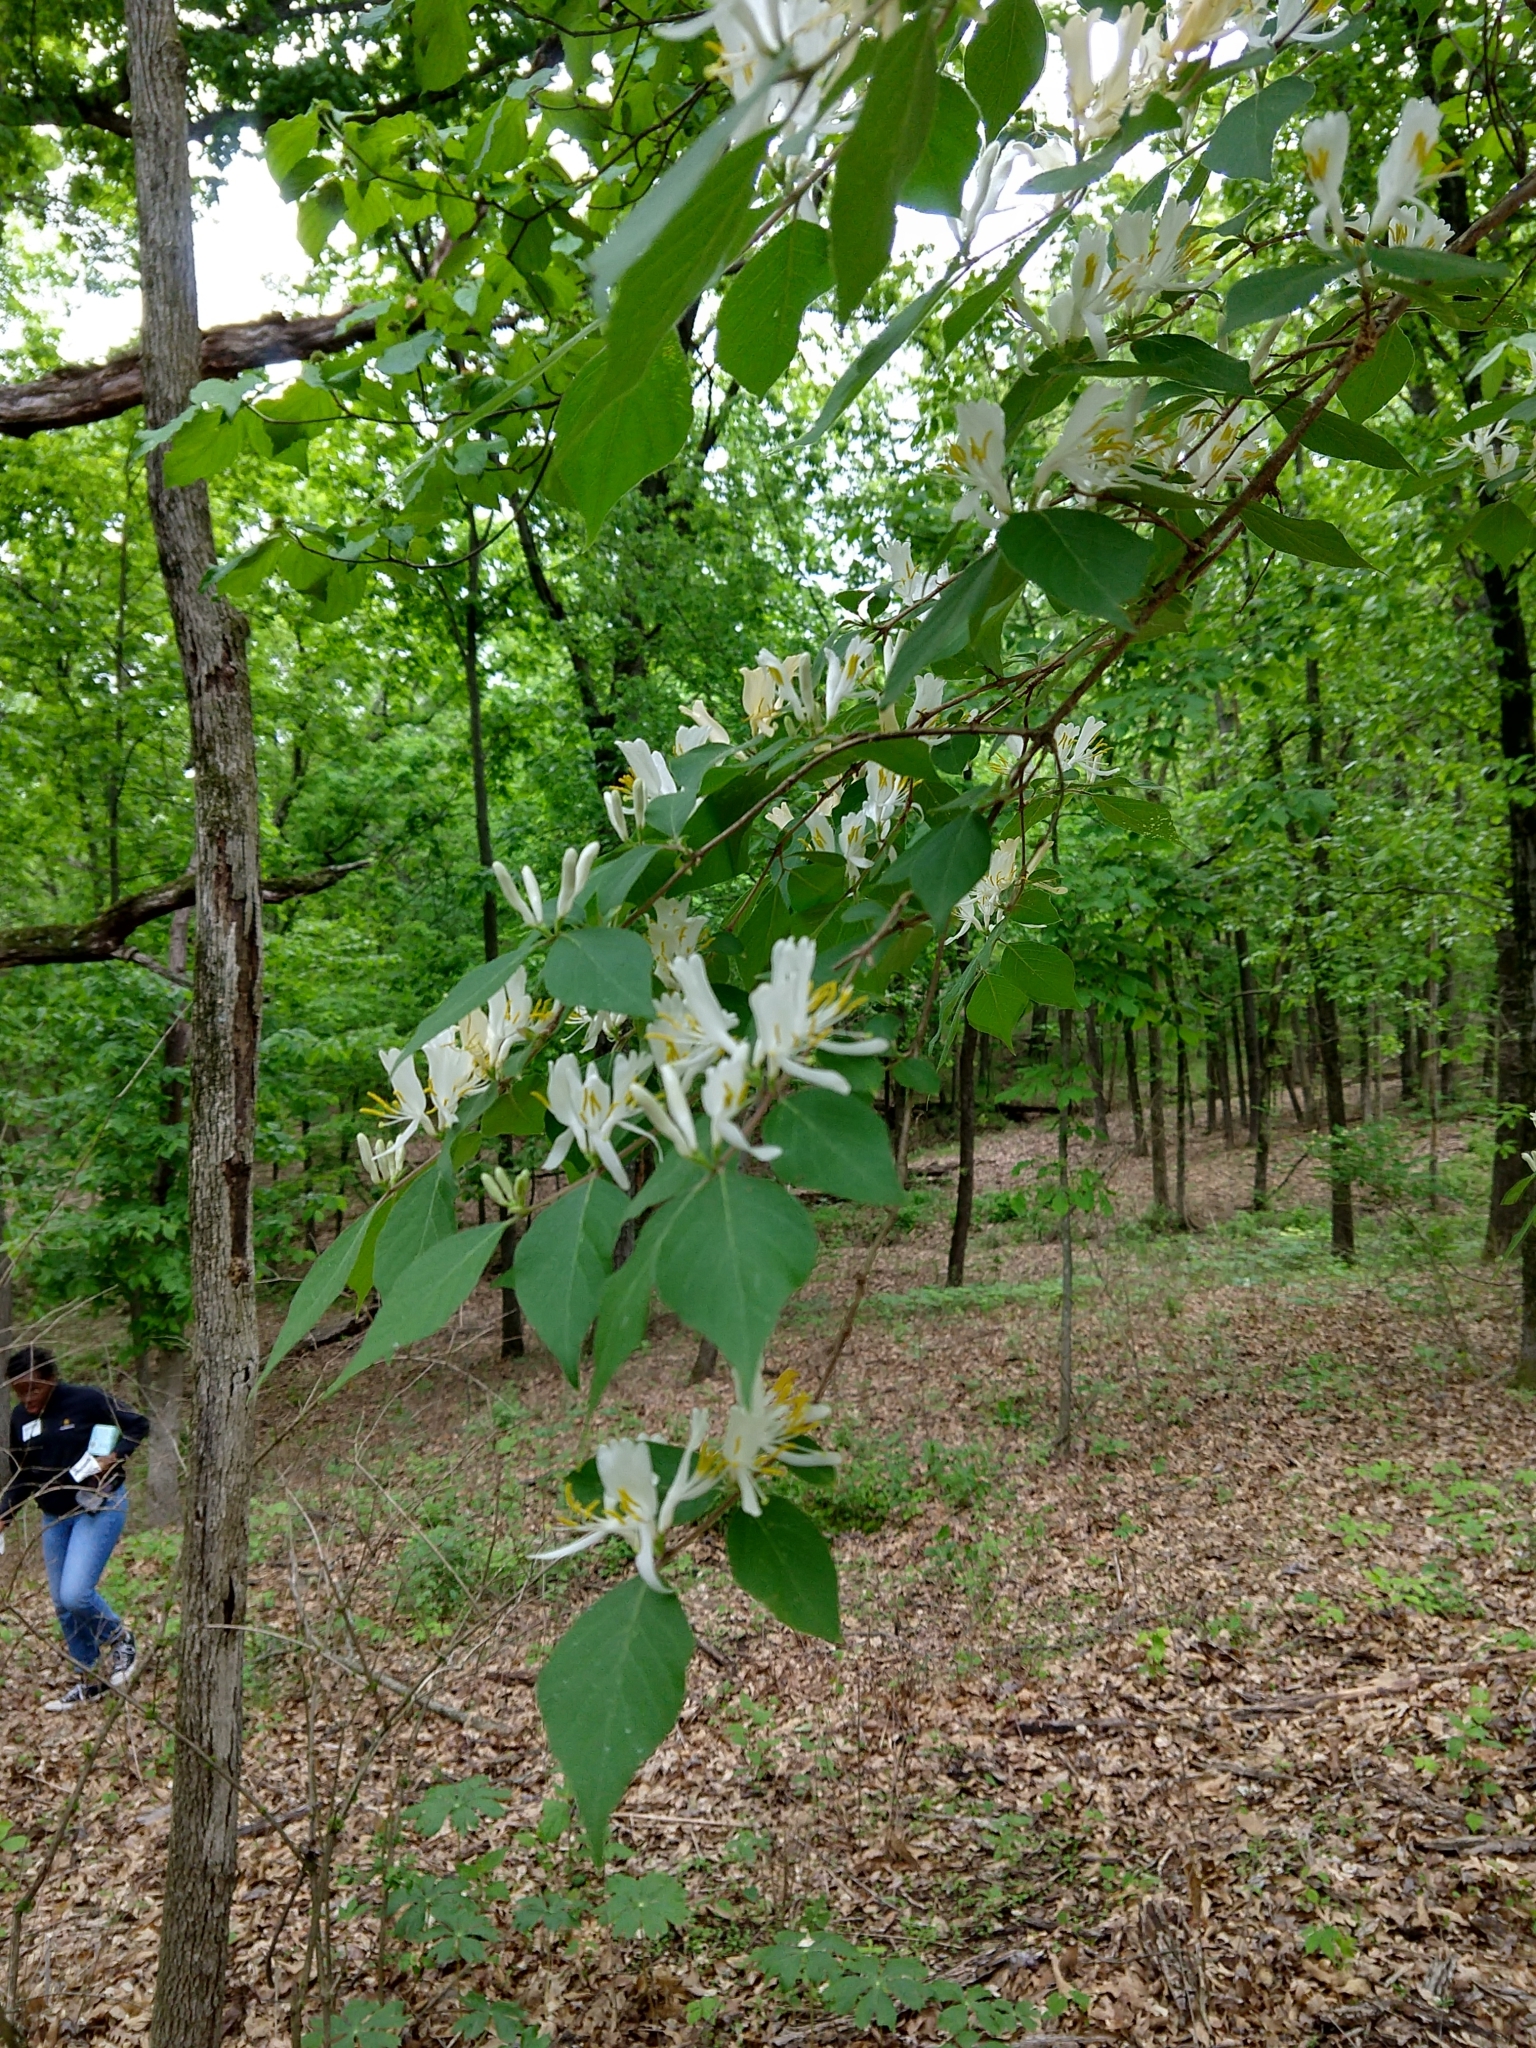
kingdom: Plantae
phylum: Tracheophyta
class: Magnoliopsida
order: Dipsacales
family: Caprifoliaceae
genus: Lonicera
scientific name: Lonicera maackii
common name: Amur honeysuckle
